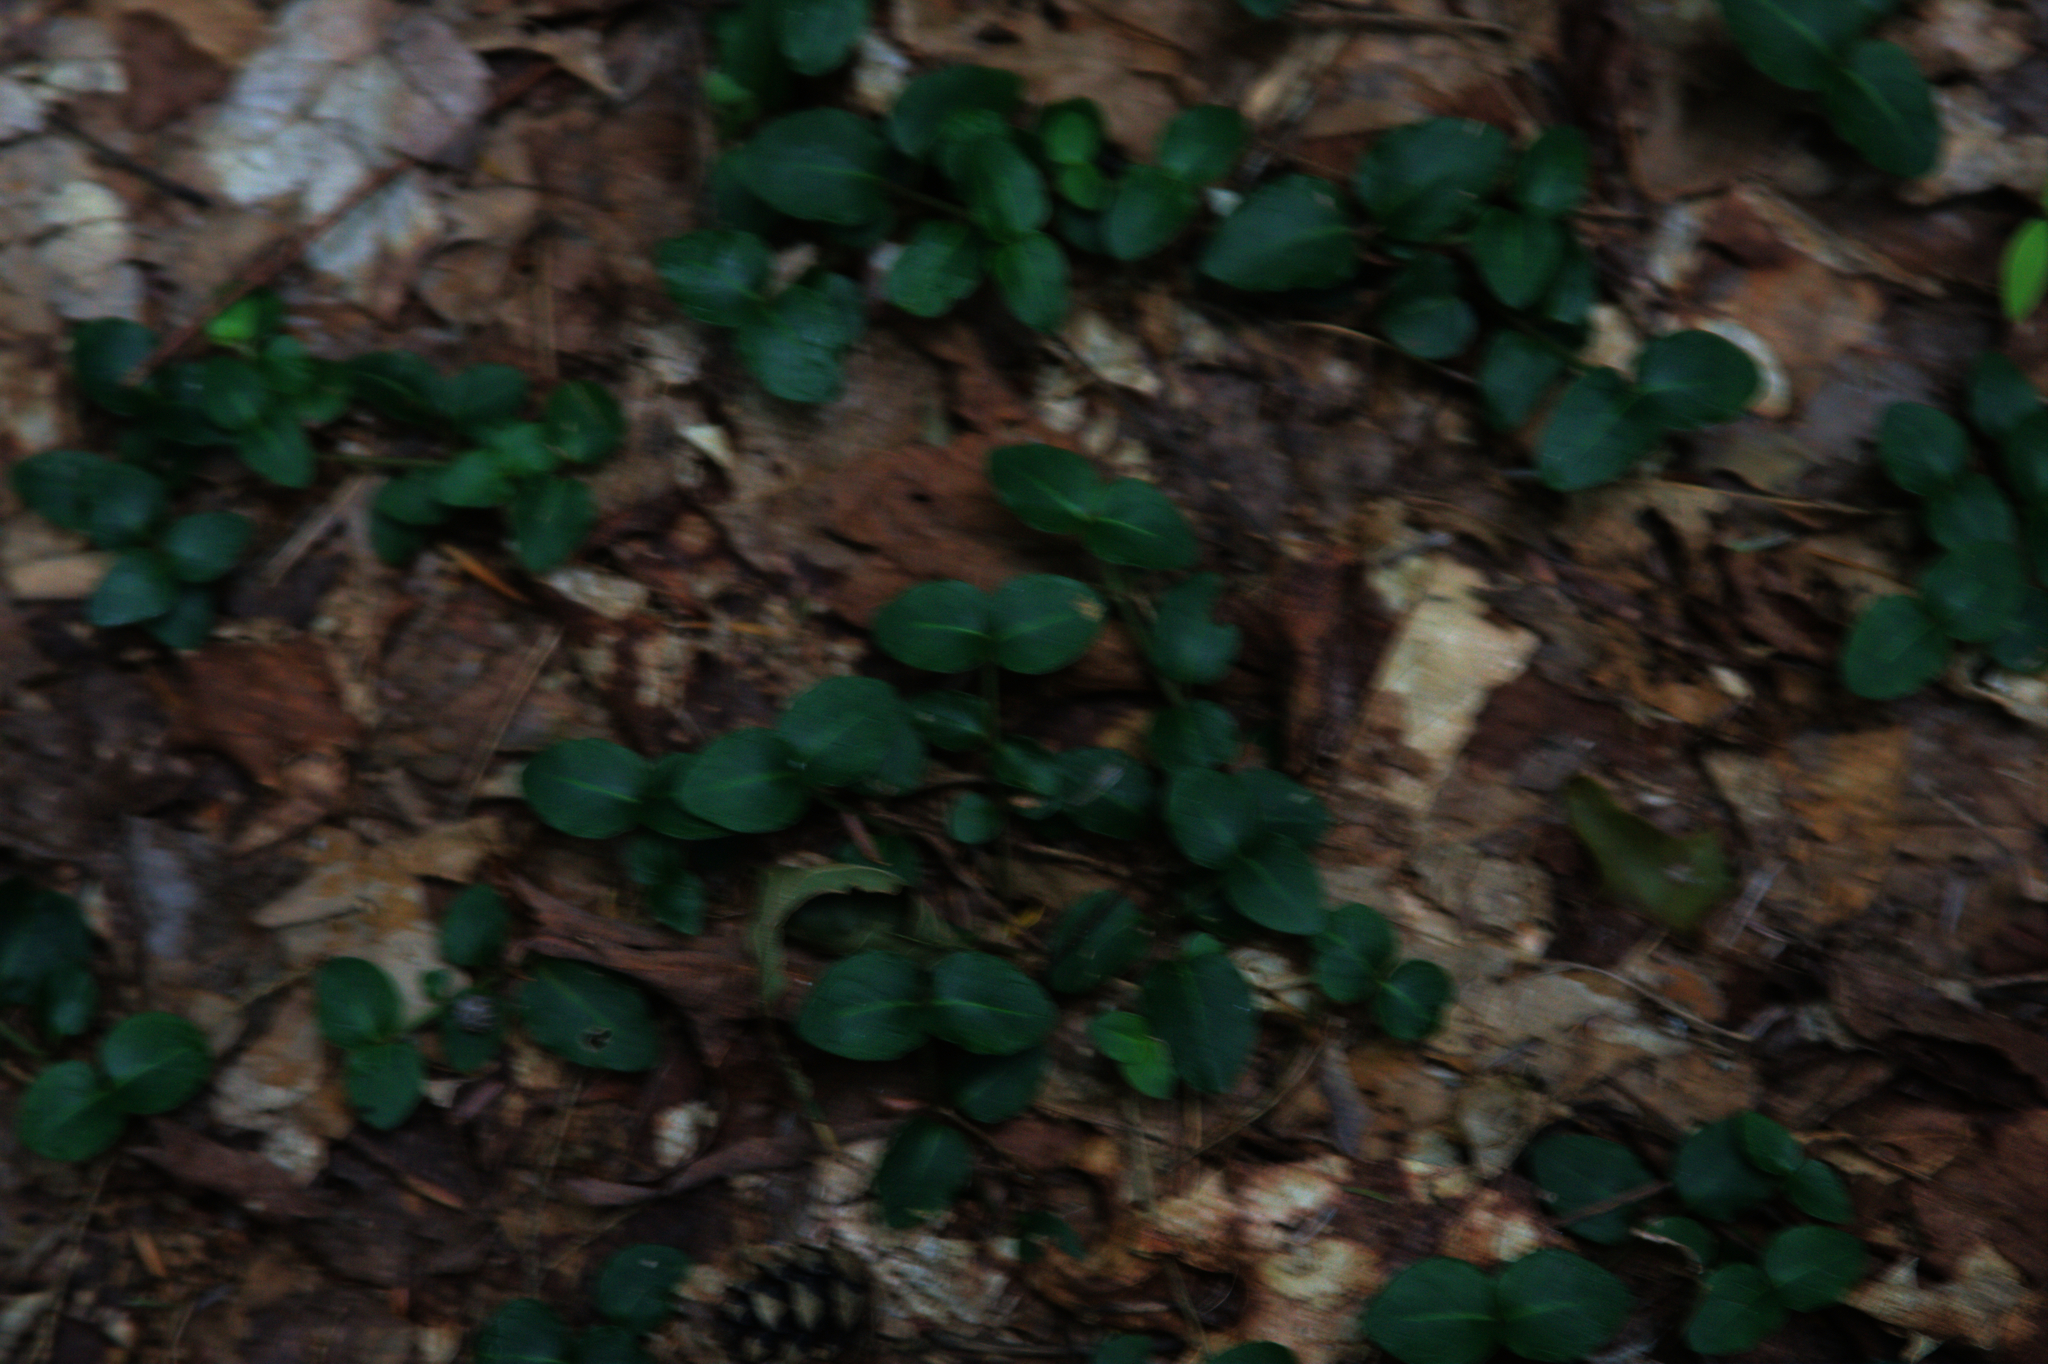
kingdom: Plantae
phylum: Tracheophyta
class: Magnoliopsida
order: Gentianales
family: Rubiaceae
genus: Mitchella
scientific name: Mitchella repens
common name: Partridge-berry
